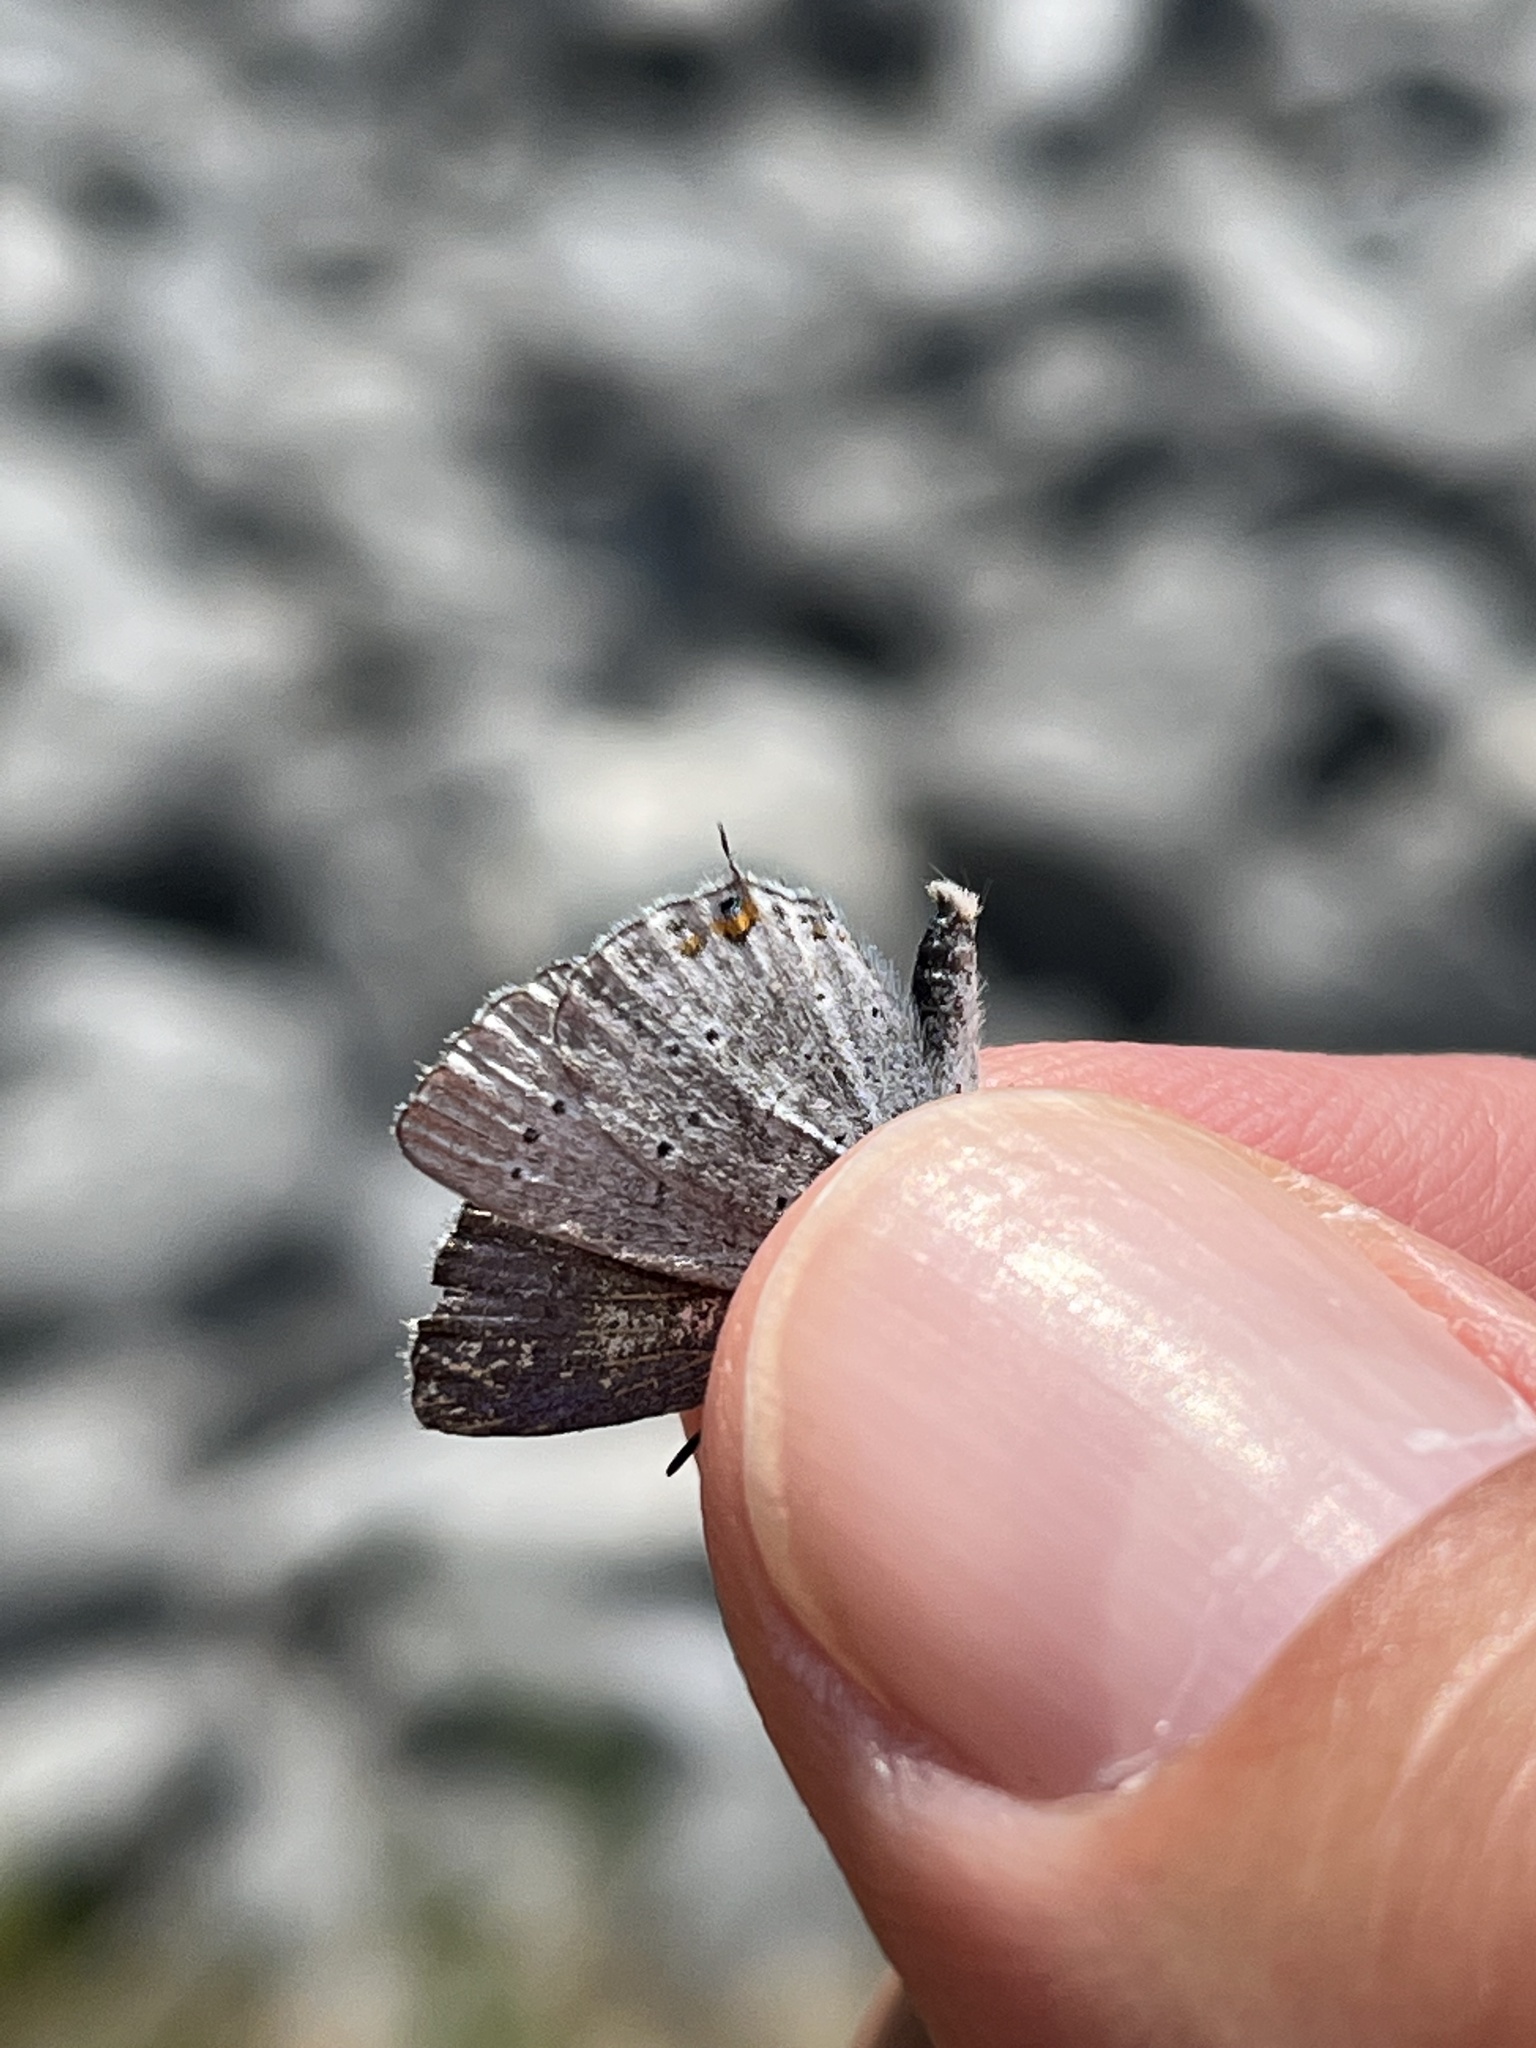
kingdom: Animalia
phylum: Arthropoda
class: Insecta
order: Lepidoptera
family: Lycaenidae
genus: Elkalyce
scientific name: Elkalyce amyntula
